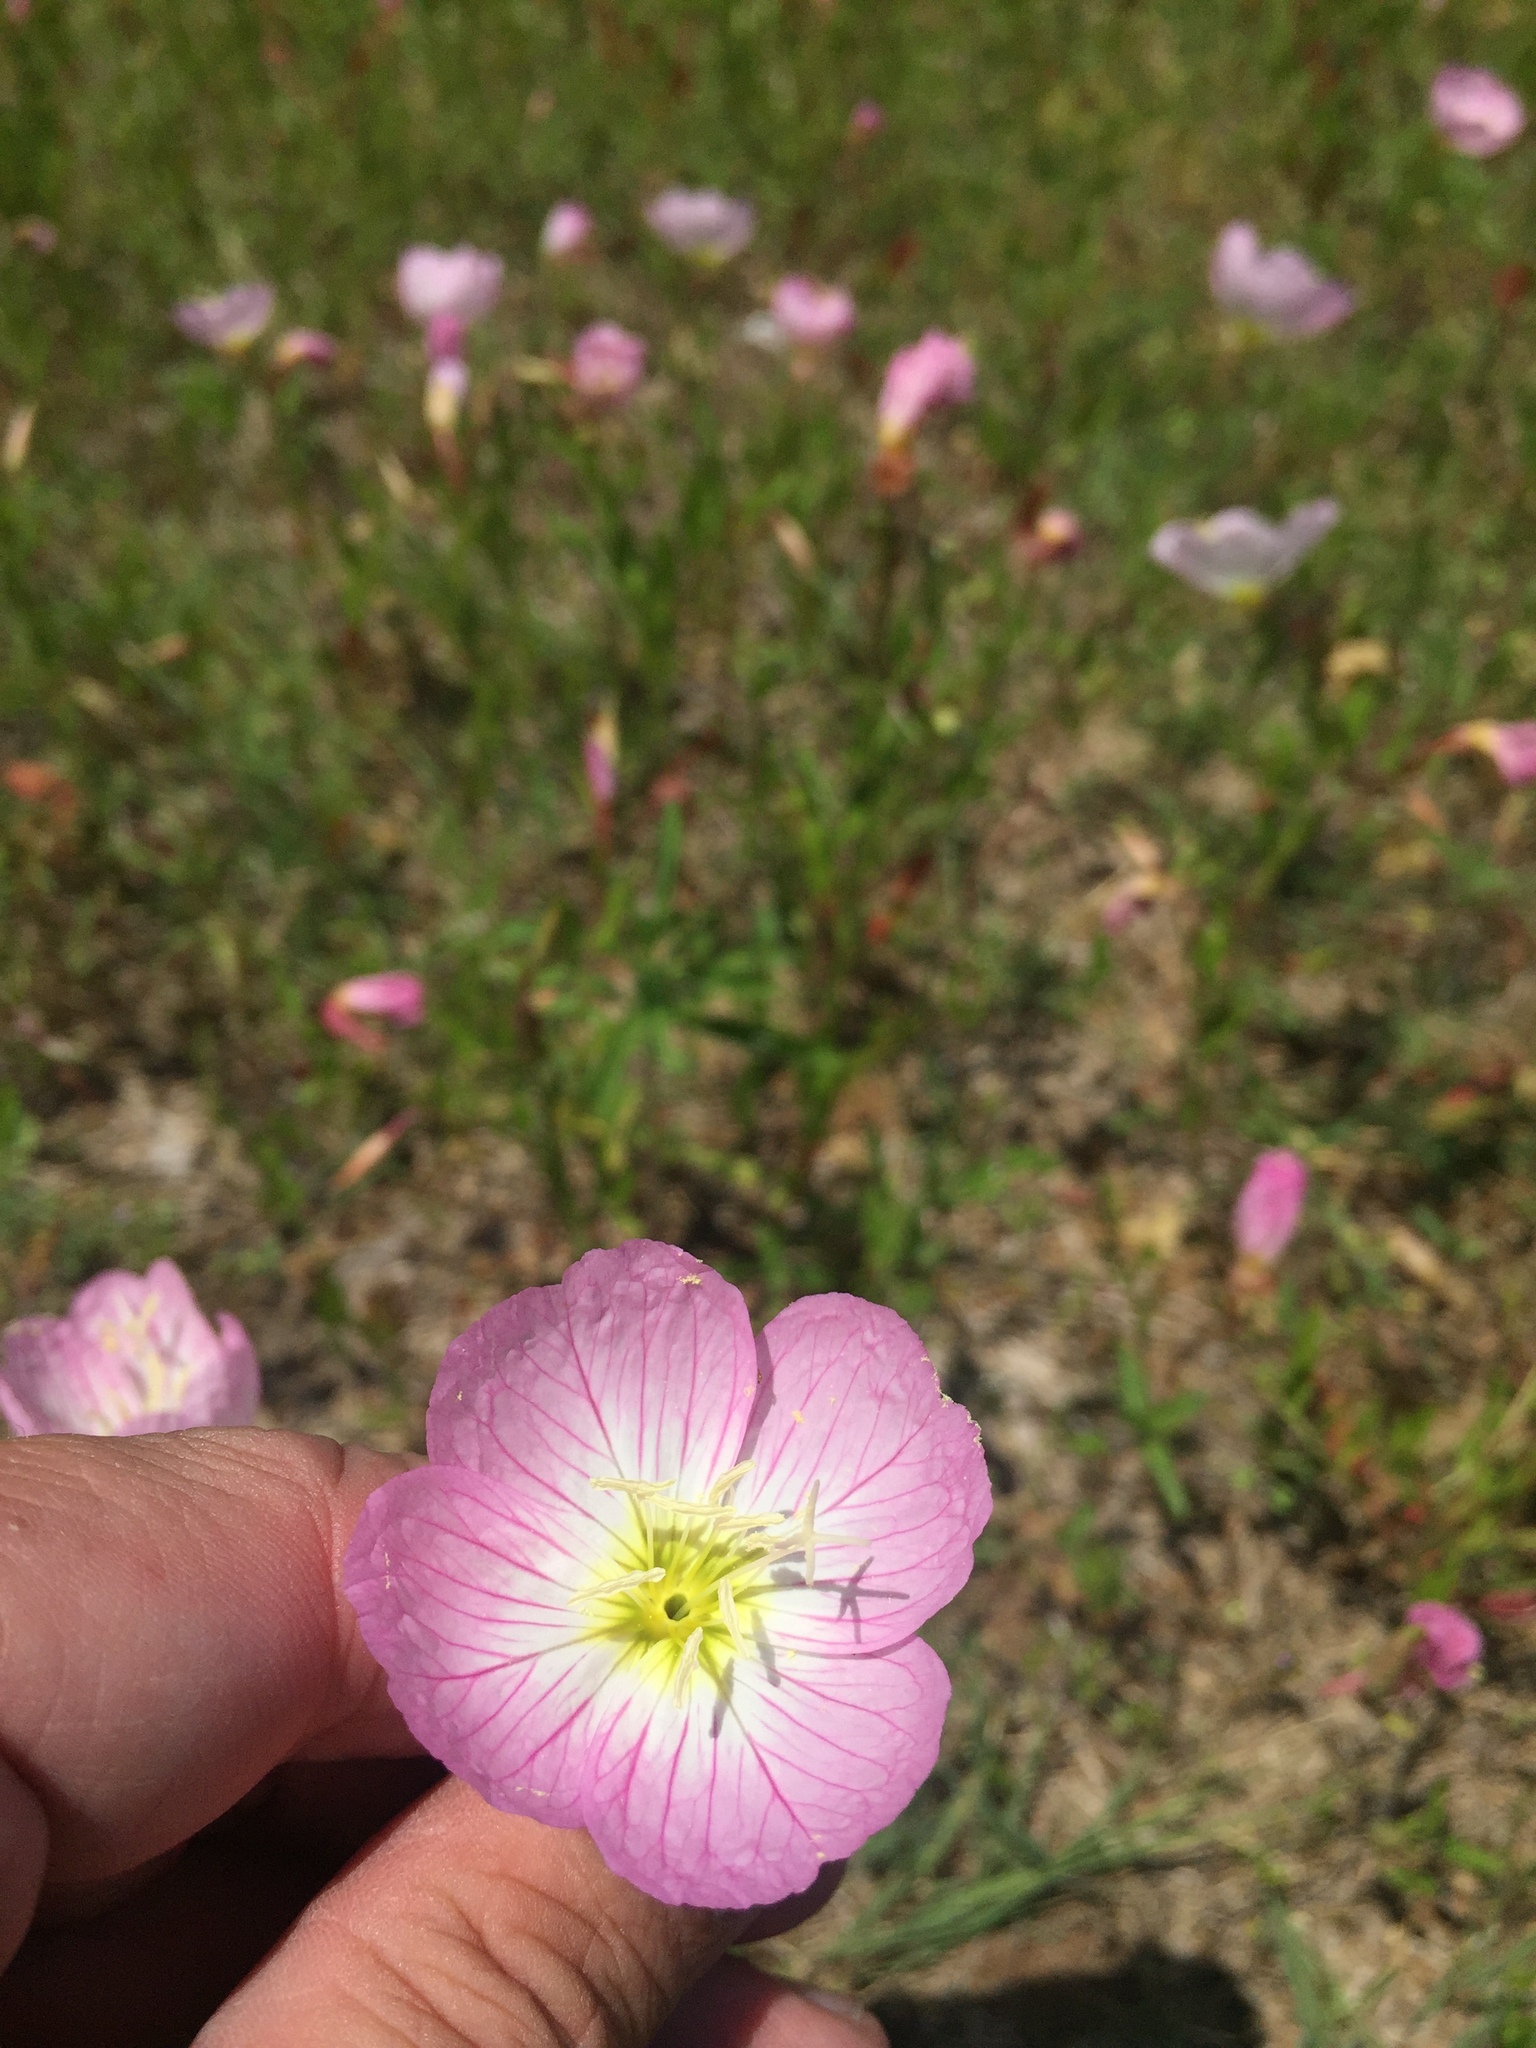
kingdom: Plantae
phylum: Tracheophyta
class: Magnoliopsida
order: Myrtales
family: Onagraceae
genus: Oenothera
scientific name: Oenothera speciosa
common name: White evening-primrose
